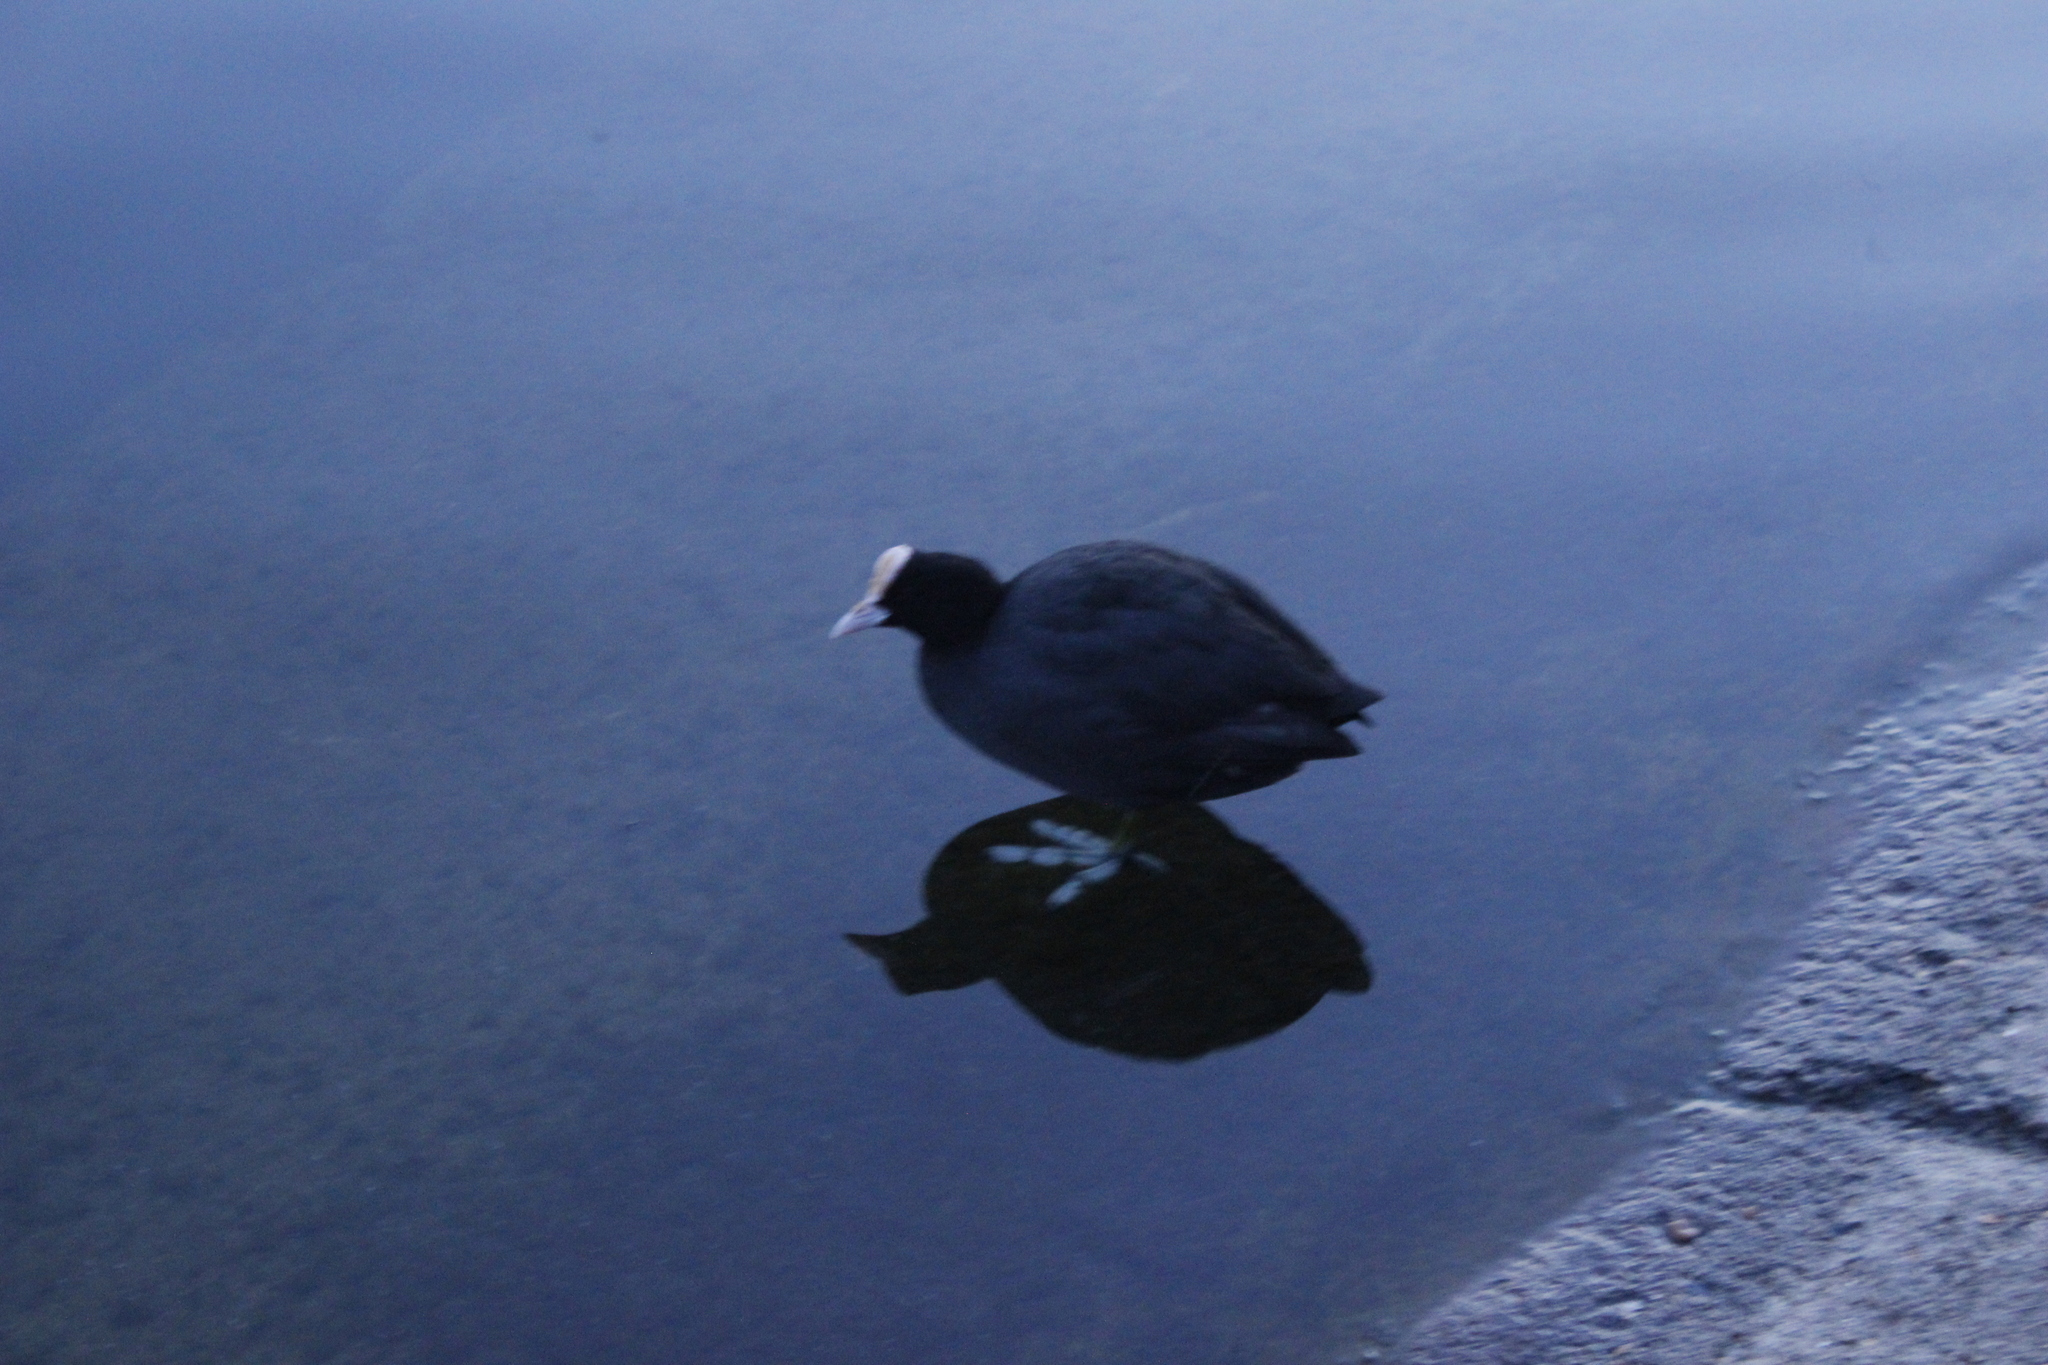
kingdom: Animalia
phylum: Chordata
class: Aves
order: Gruiformes
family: Rallidae
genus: Fulica
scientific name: Fulica atra
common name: Eurasian coot
